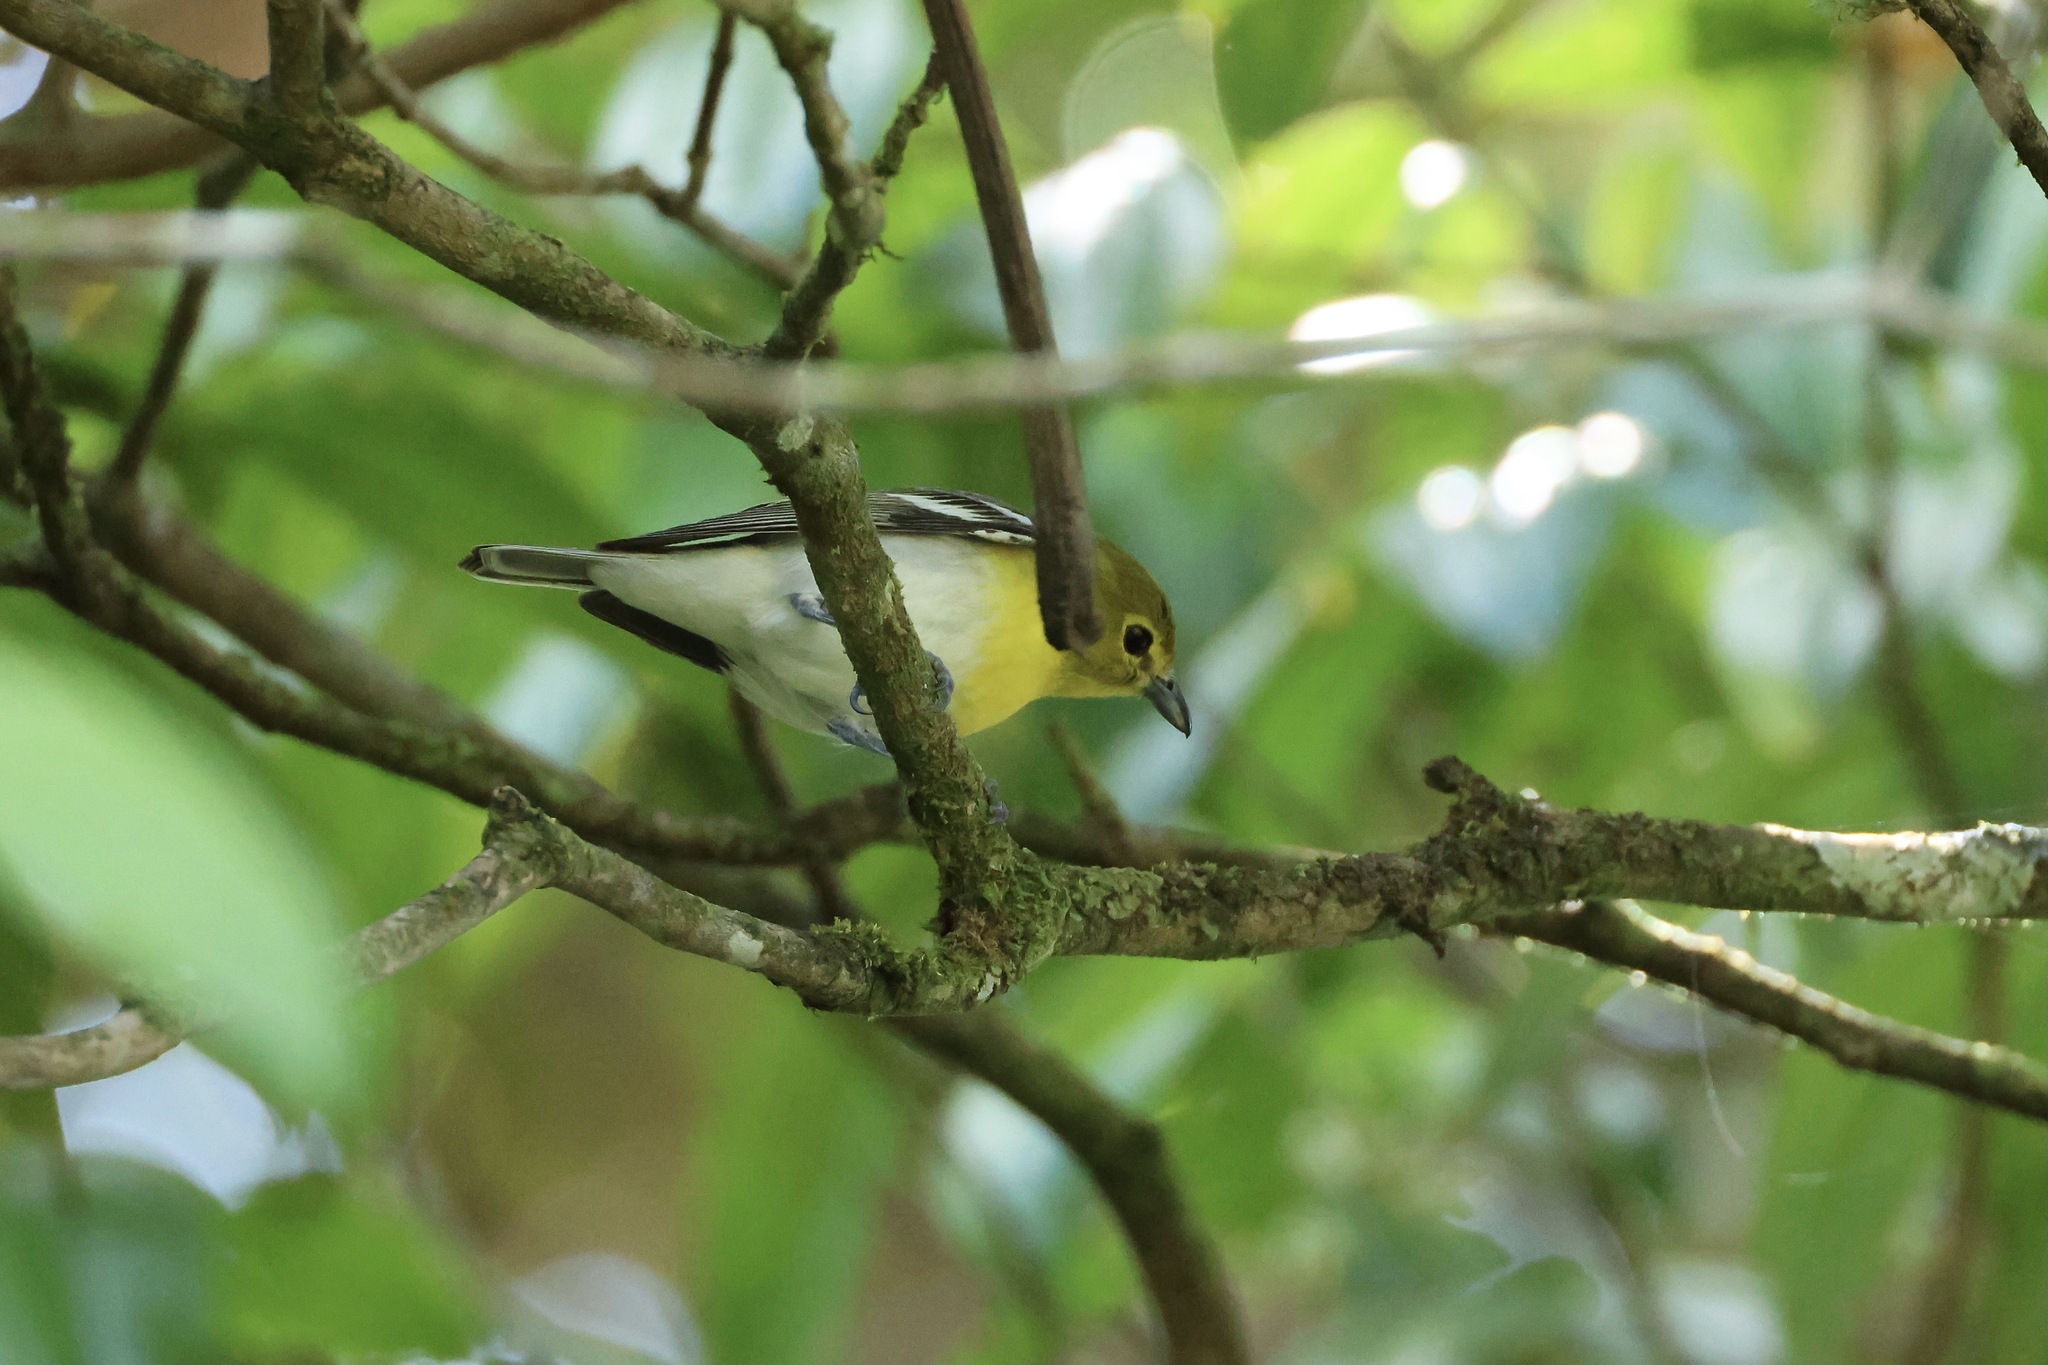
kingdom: Animalia
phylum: Chordata
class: Aves
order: Passeriformes
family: Vireonidae
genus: Vireo
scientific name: Vireo flavifrons
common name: Yellow-throated vireo
